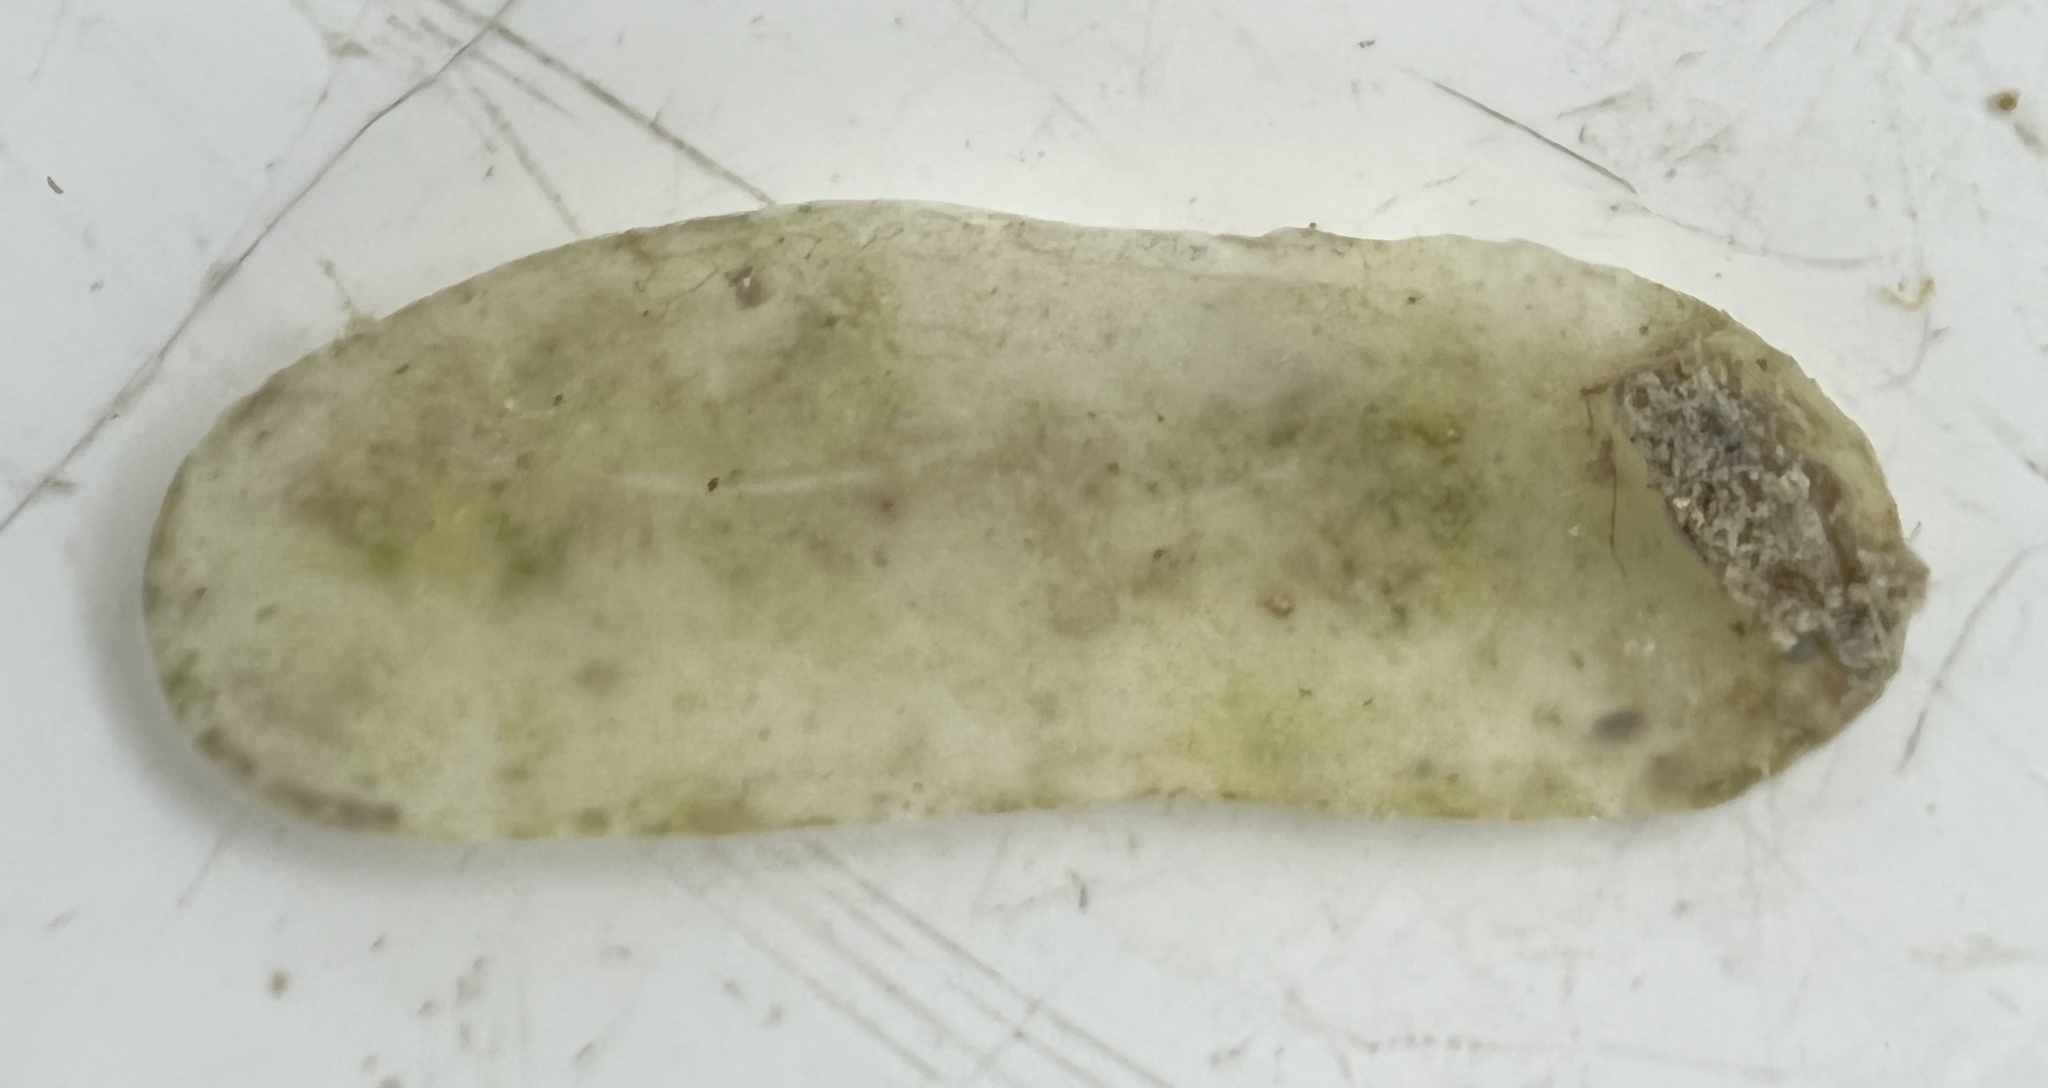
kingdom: Animalia
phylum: Mollusca
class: Bivalvia
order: Cardiida
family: Solecurtidae
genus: Tagelus
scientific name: Tagelus divisus
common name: Purplish tagelus
